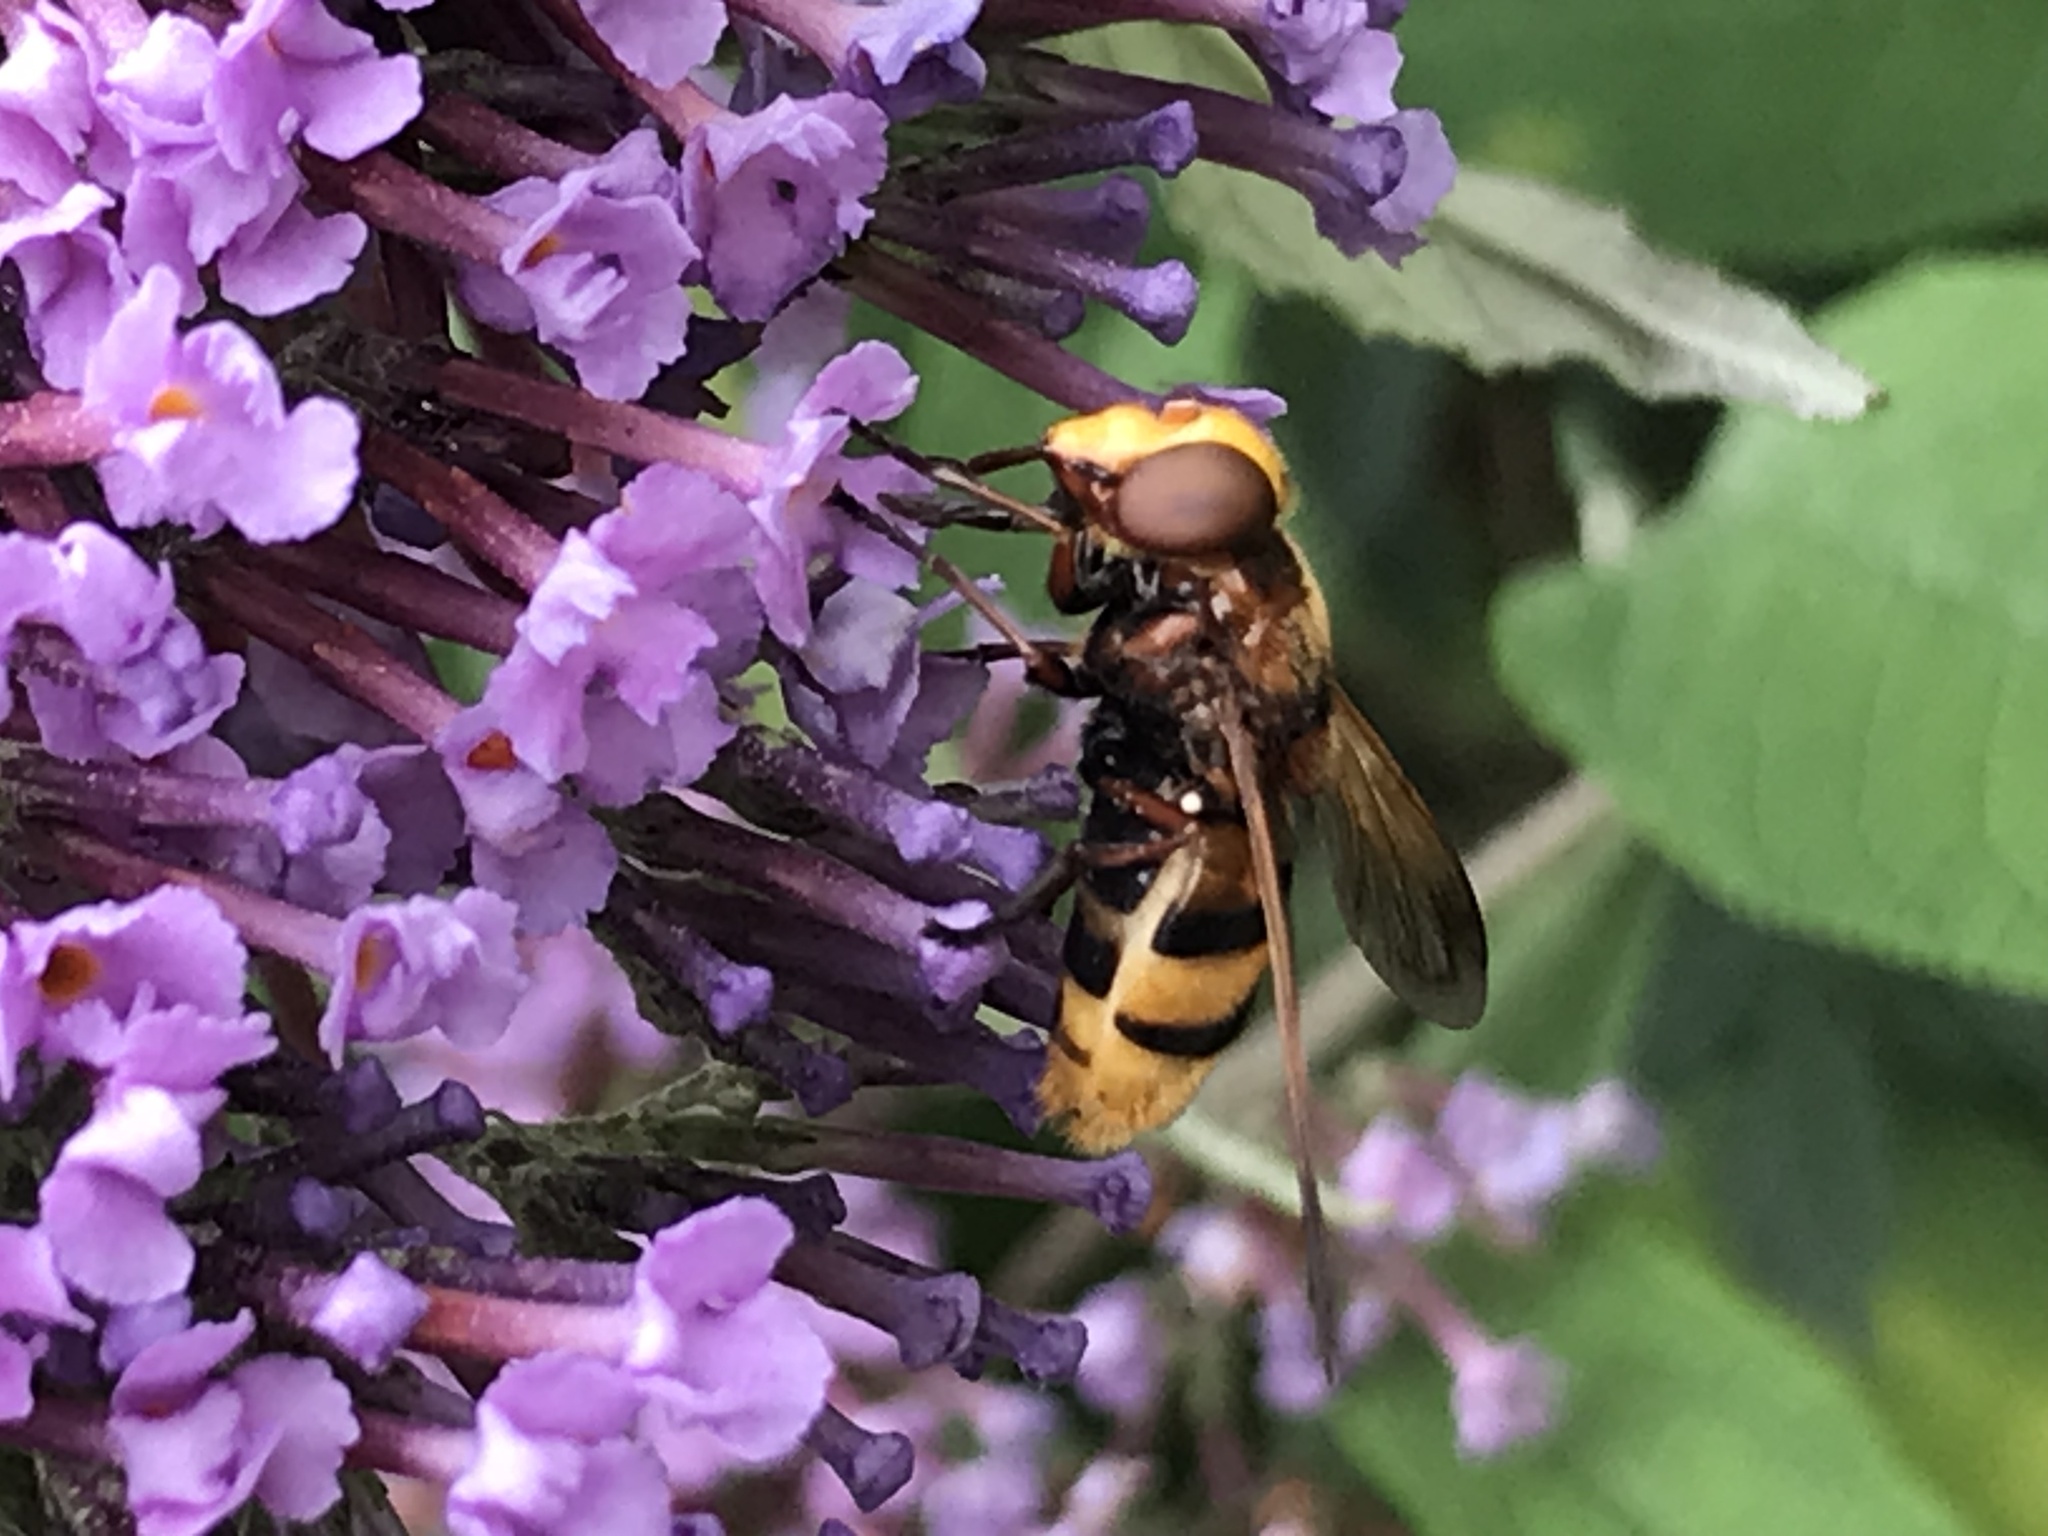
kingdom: Animalia
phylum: Arthropoda
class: Insecta
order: Diptera
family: Syrphidae
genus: Volucella
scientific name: Volucella zonaria
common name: Hornet hoverfly
